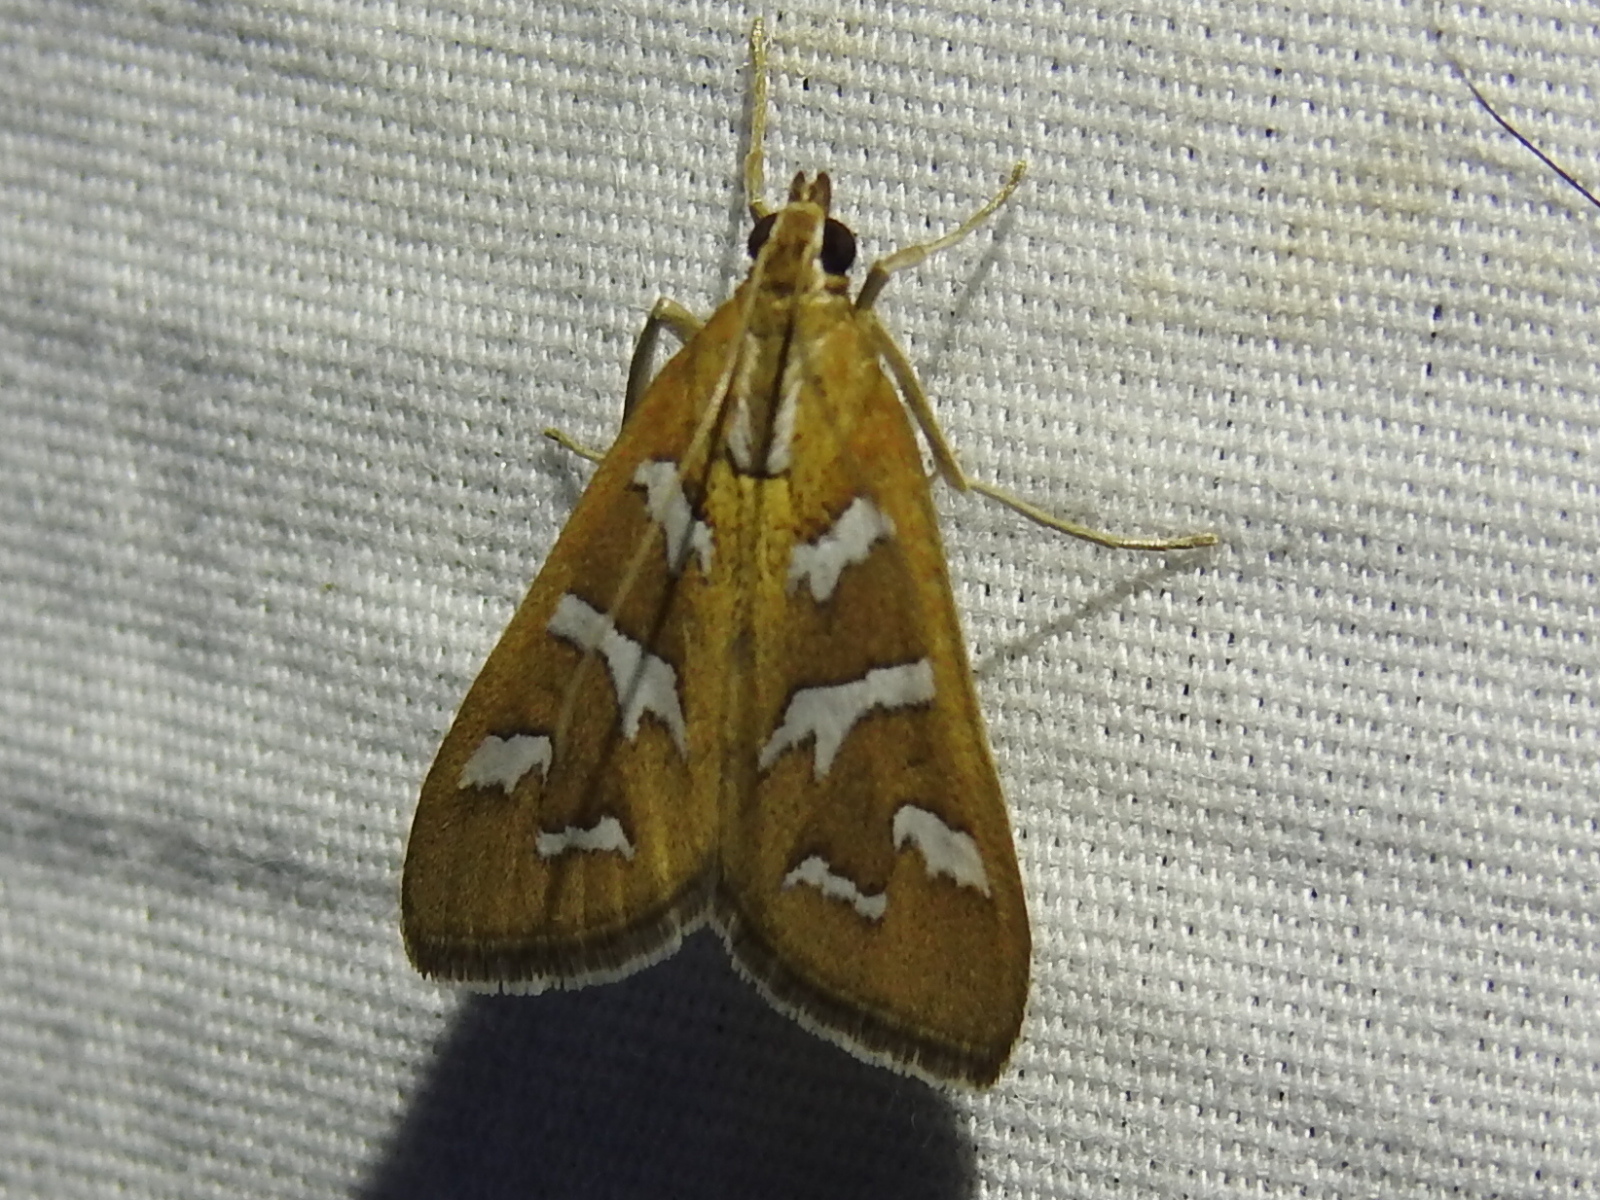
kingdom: Animalia
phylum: Arthropoda
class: Insecta
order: Lepidoptera
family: Crambidae
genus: Diastictis
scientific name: Diastictis fracturalis
